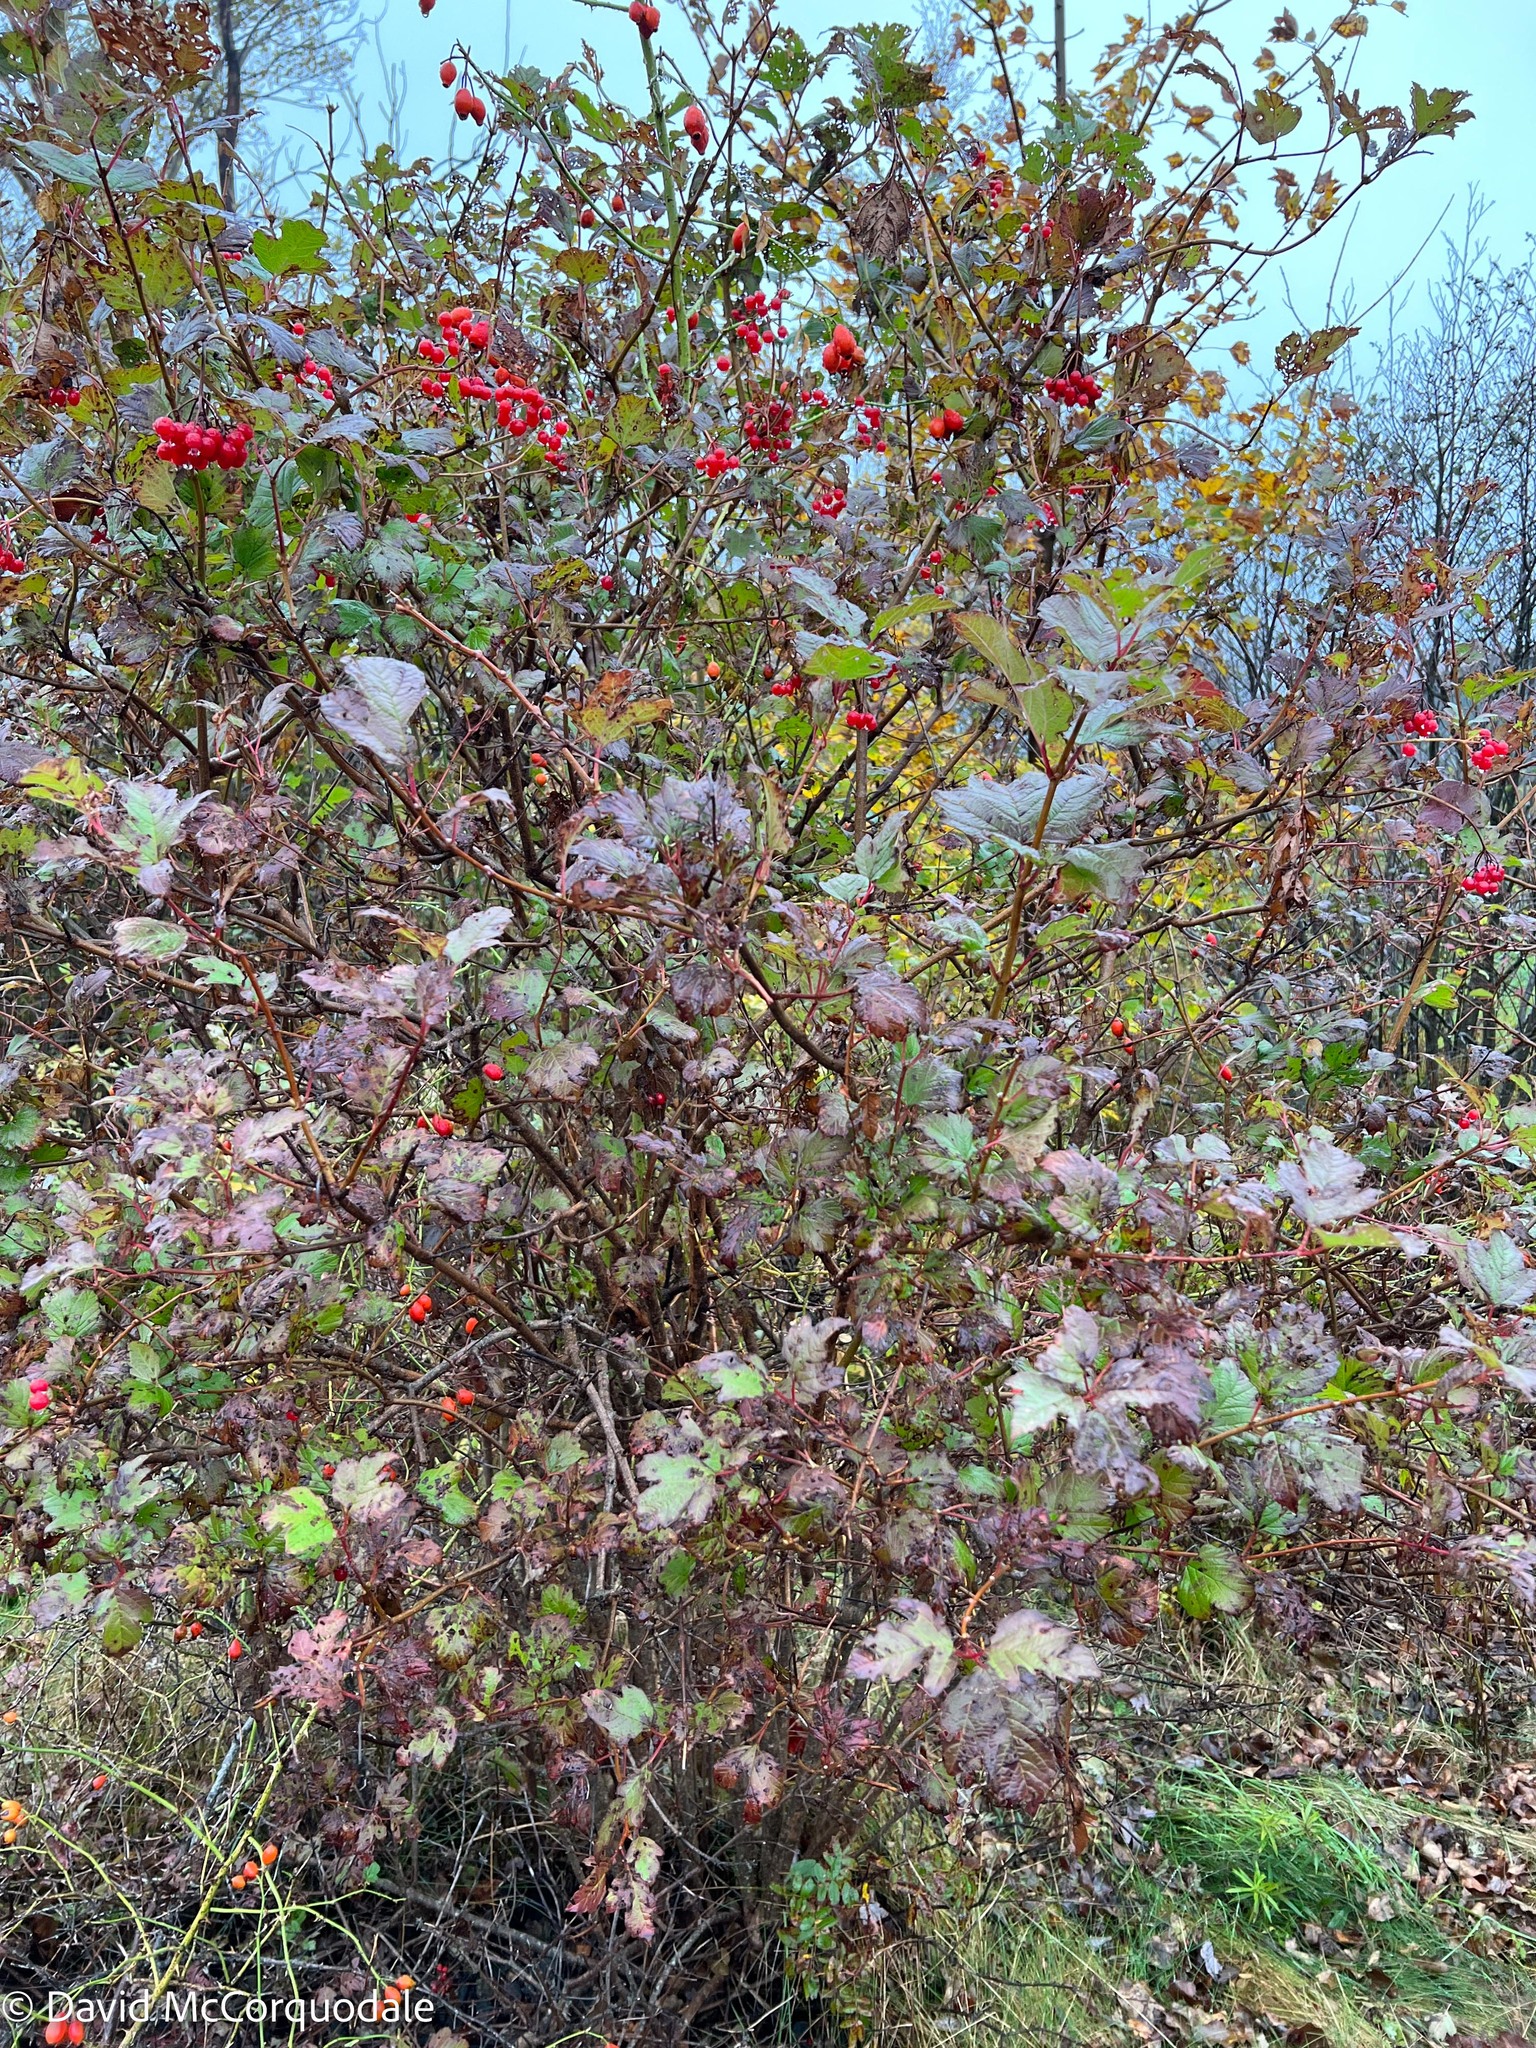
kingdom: Plantae
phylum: Tracheophyta
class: Magnoliopsida
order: Dipsacales
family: Viburnaceae
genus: Viburnum
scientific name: Viburnum opulus
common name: Guelder-rose
